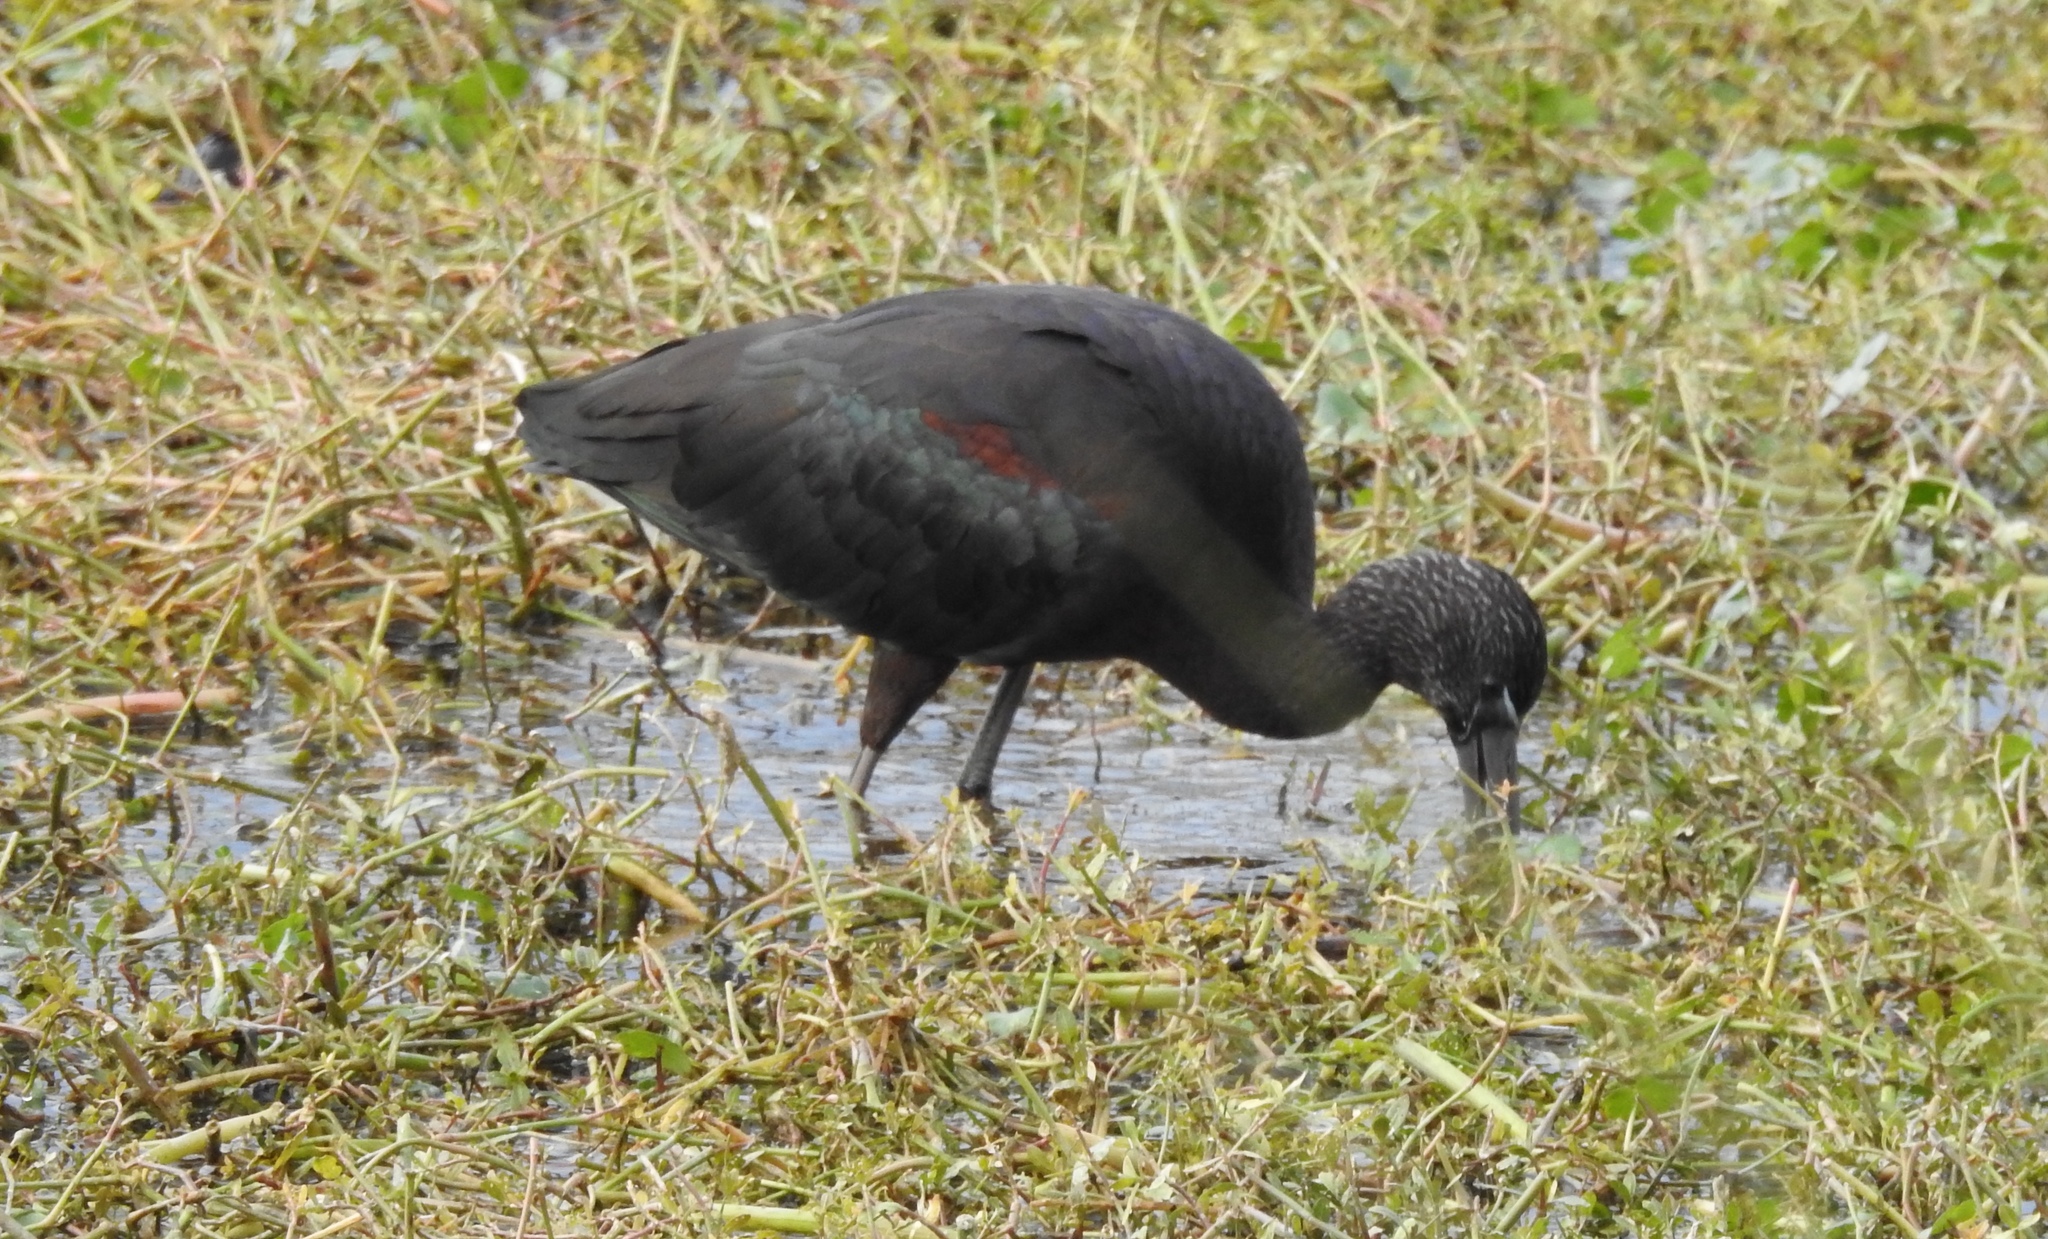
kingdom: Animalia
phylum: Chordata
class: Aves
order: Pelecaniformes
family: Threskiornithidae
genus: Plegadis
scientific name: Plegadis falcinellus
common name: Glossy ibis
